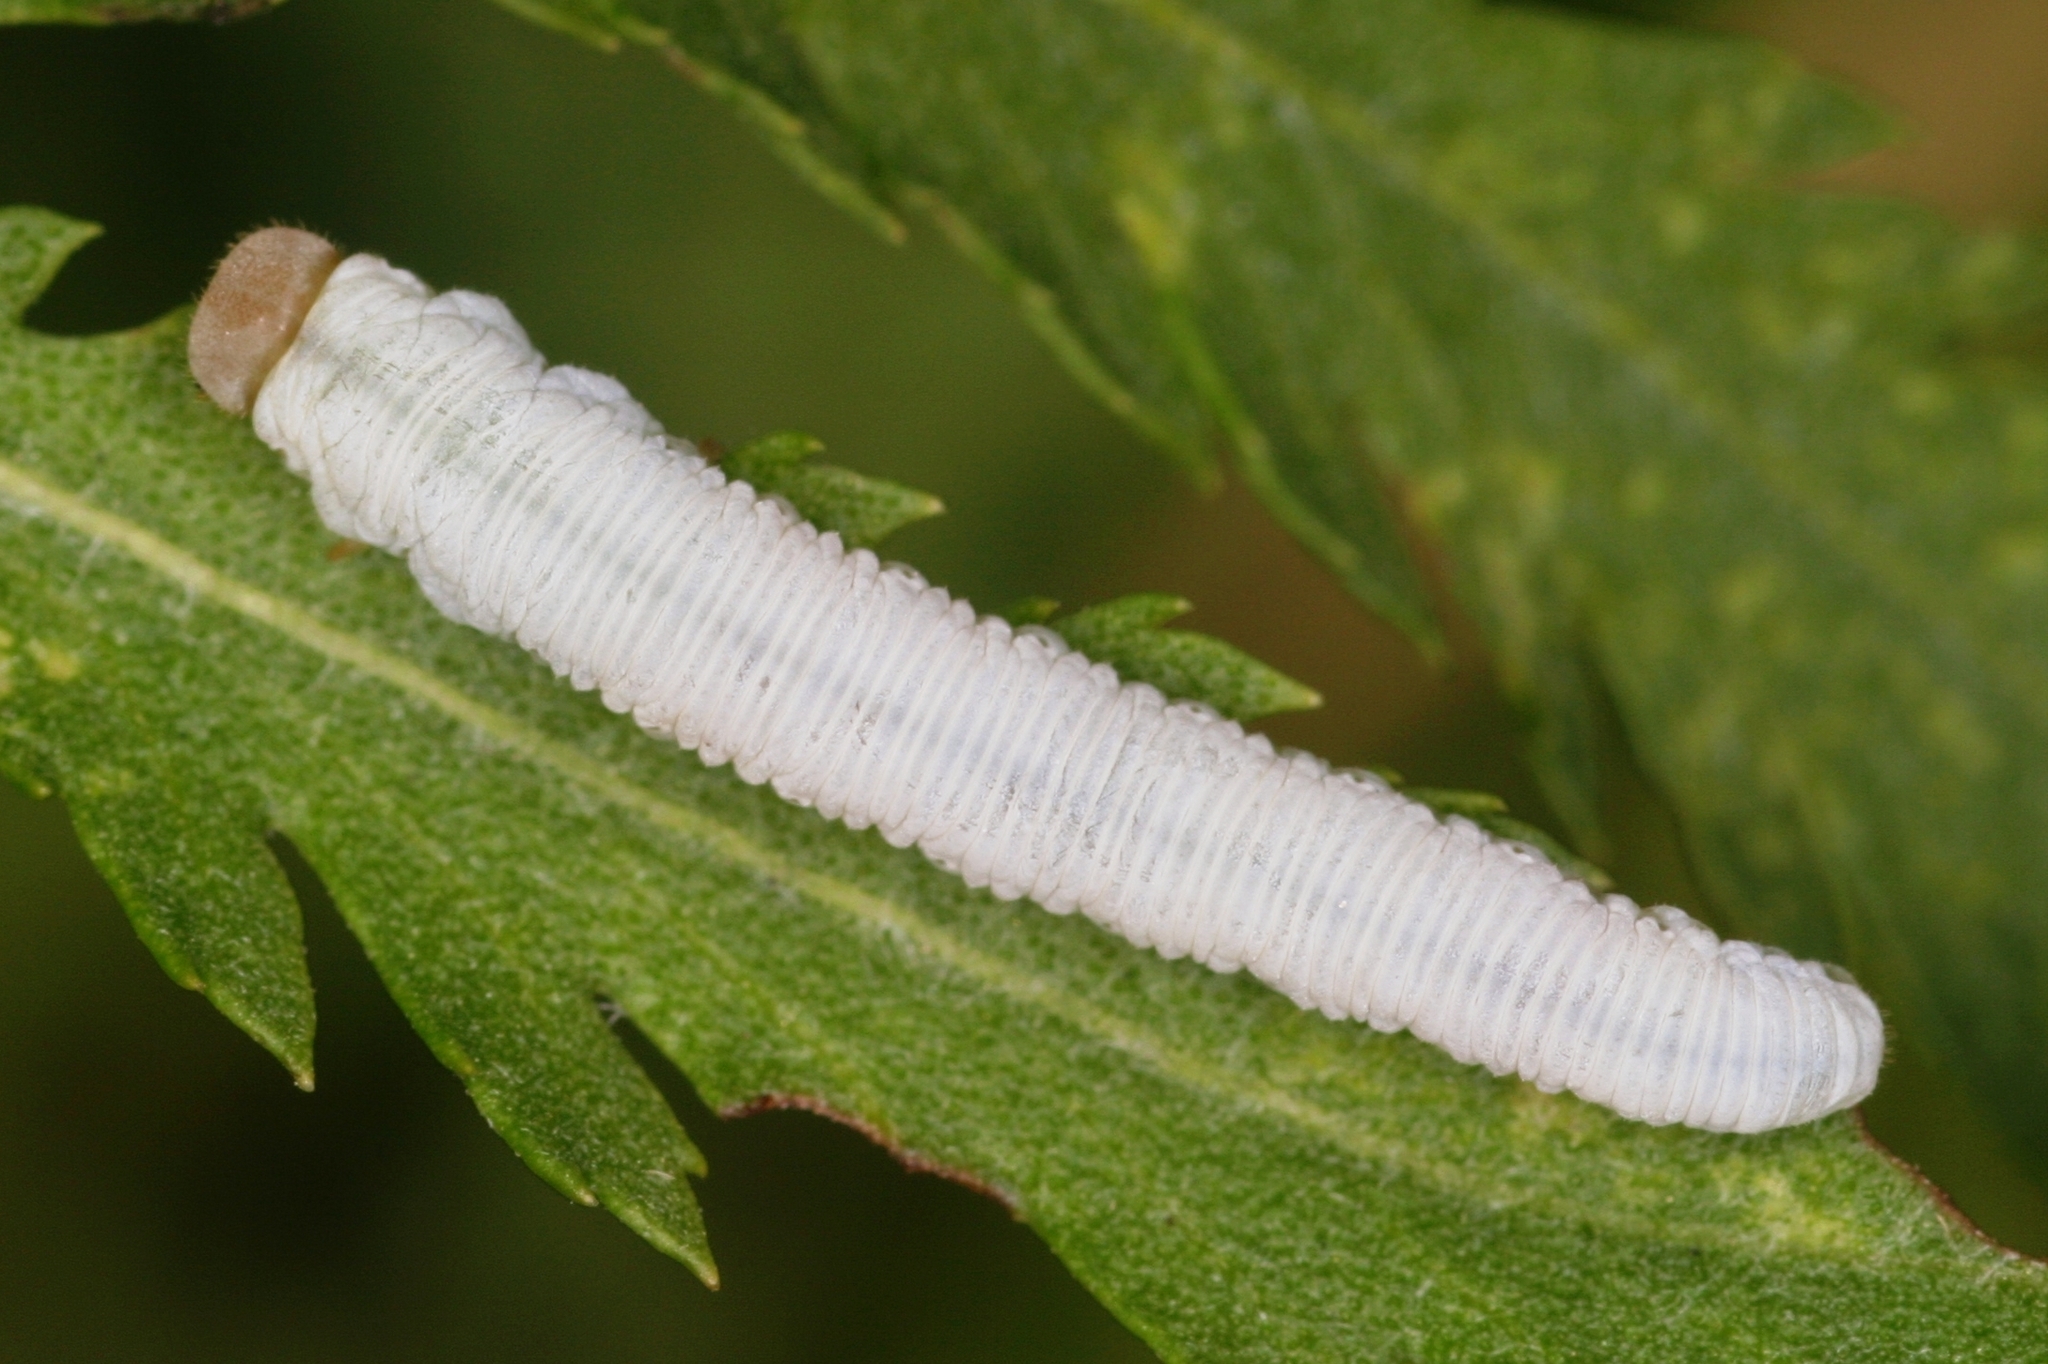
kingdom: Animalia
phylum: Arthropoda
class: Insecta
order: Hymenoptera
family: Tenthredinidae
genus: Pachyprotasis
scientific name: Pachyprotasis simulans
